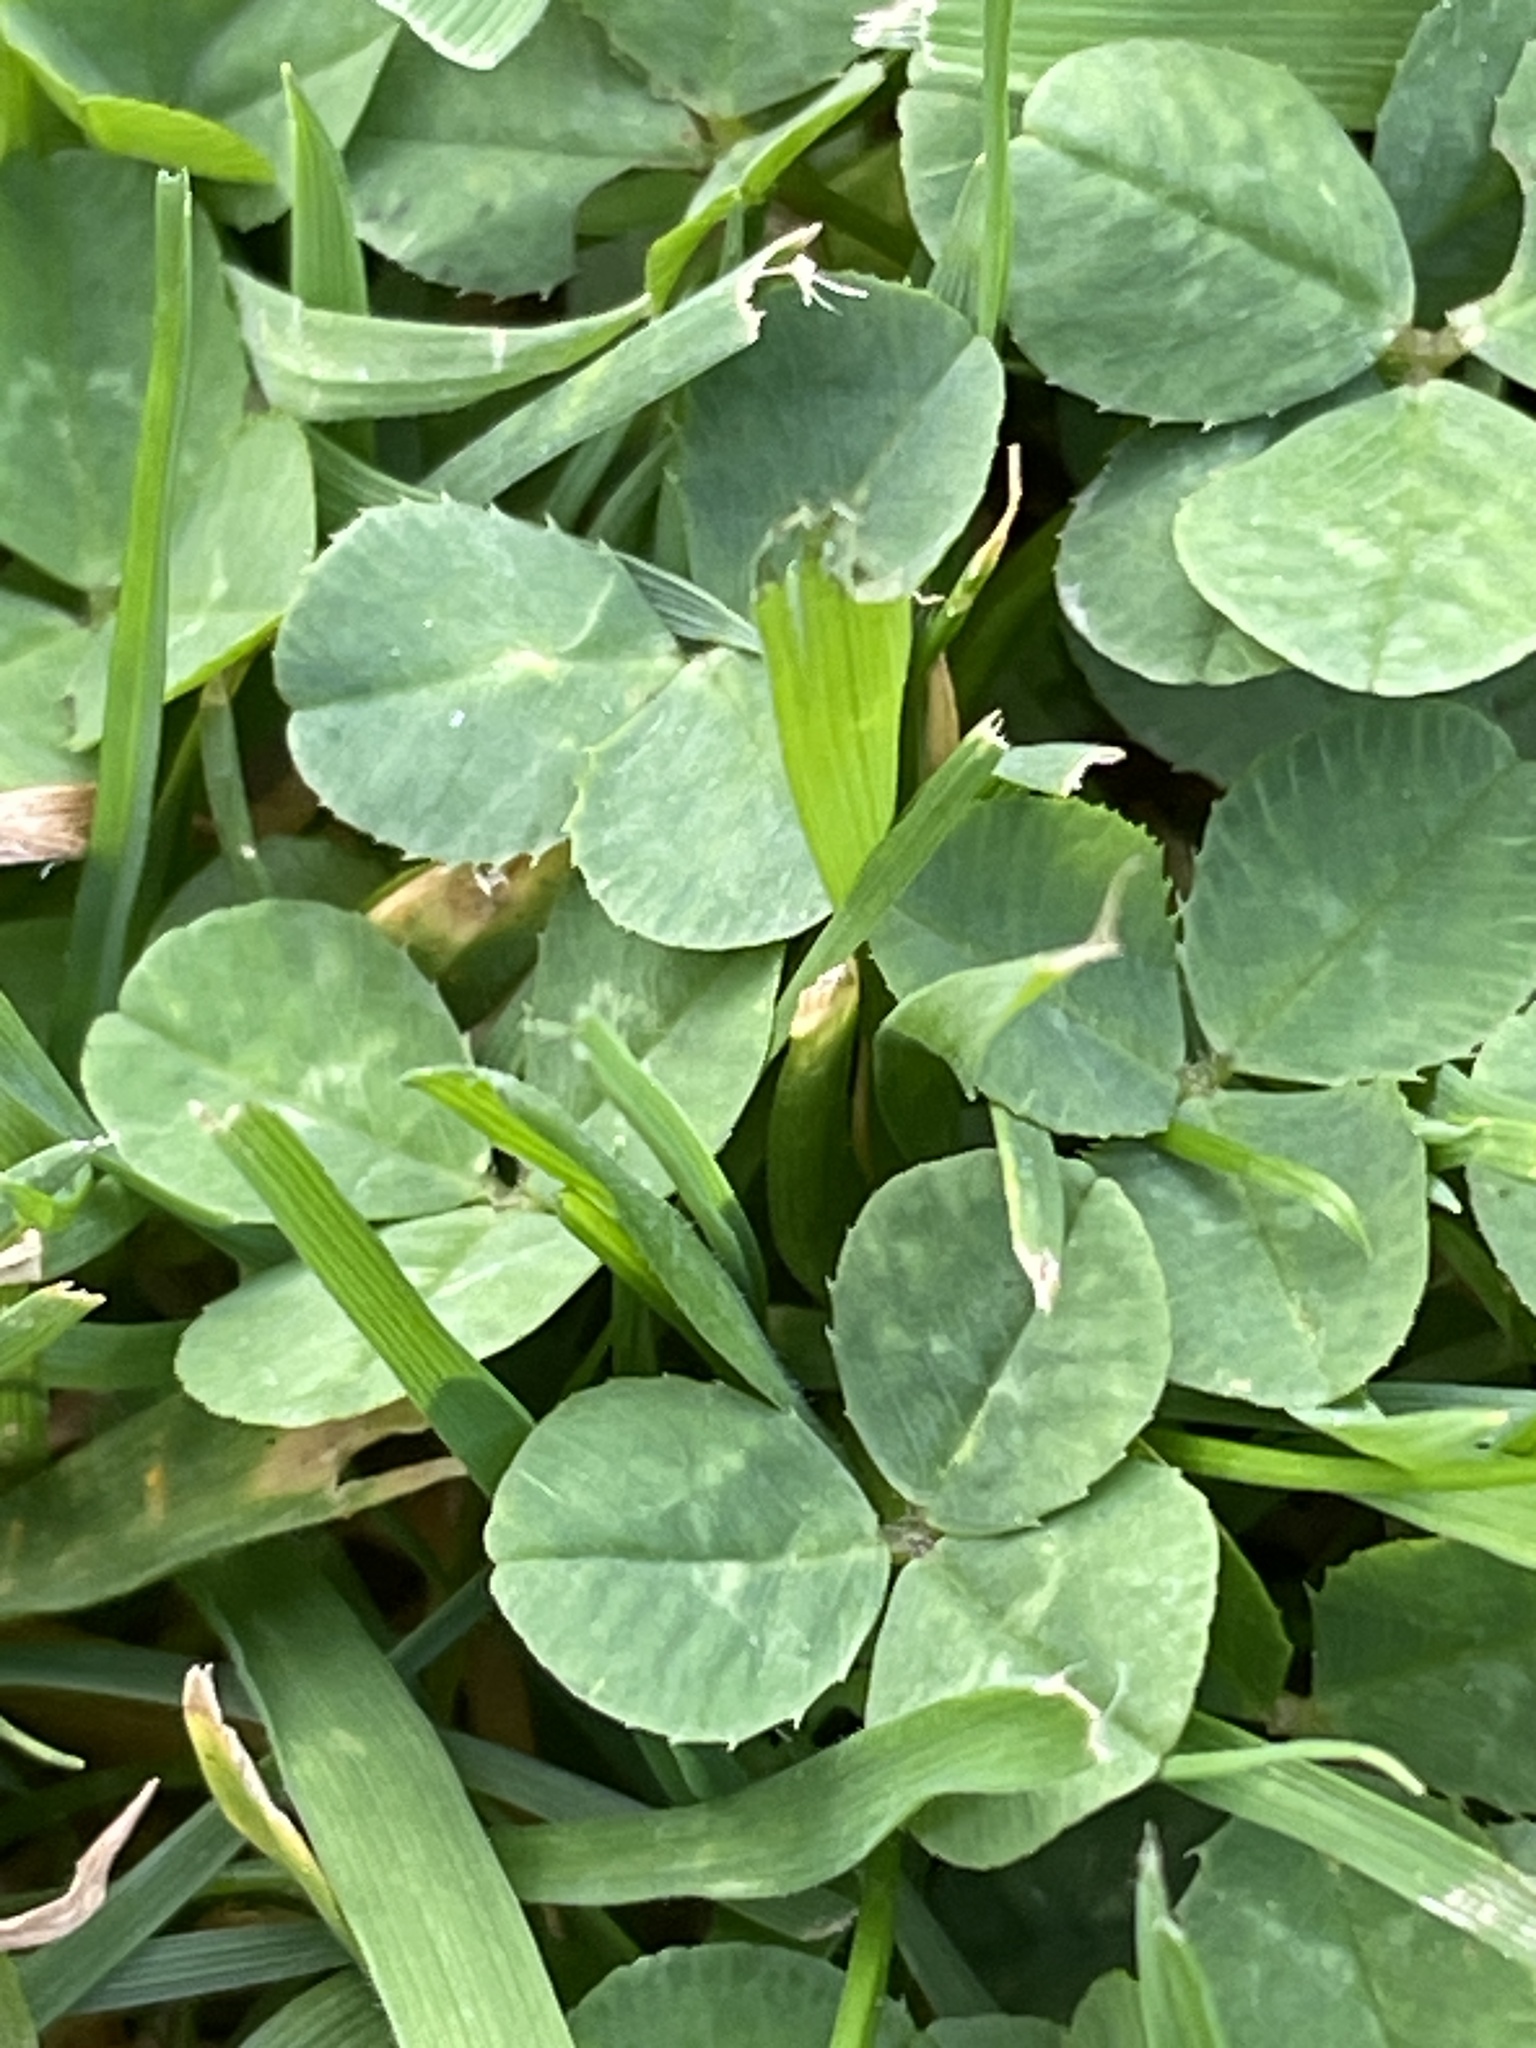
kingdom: Plantae
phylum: Tracheophyta
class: Magnoliopsida
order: Fabales
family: Fabaceae
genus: Trifolium
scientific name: Trifolium repens
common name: White clover
